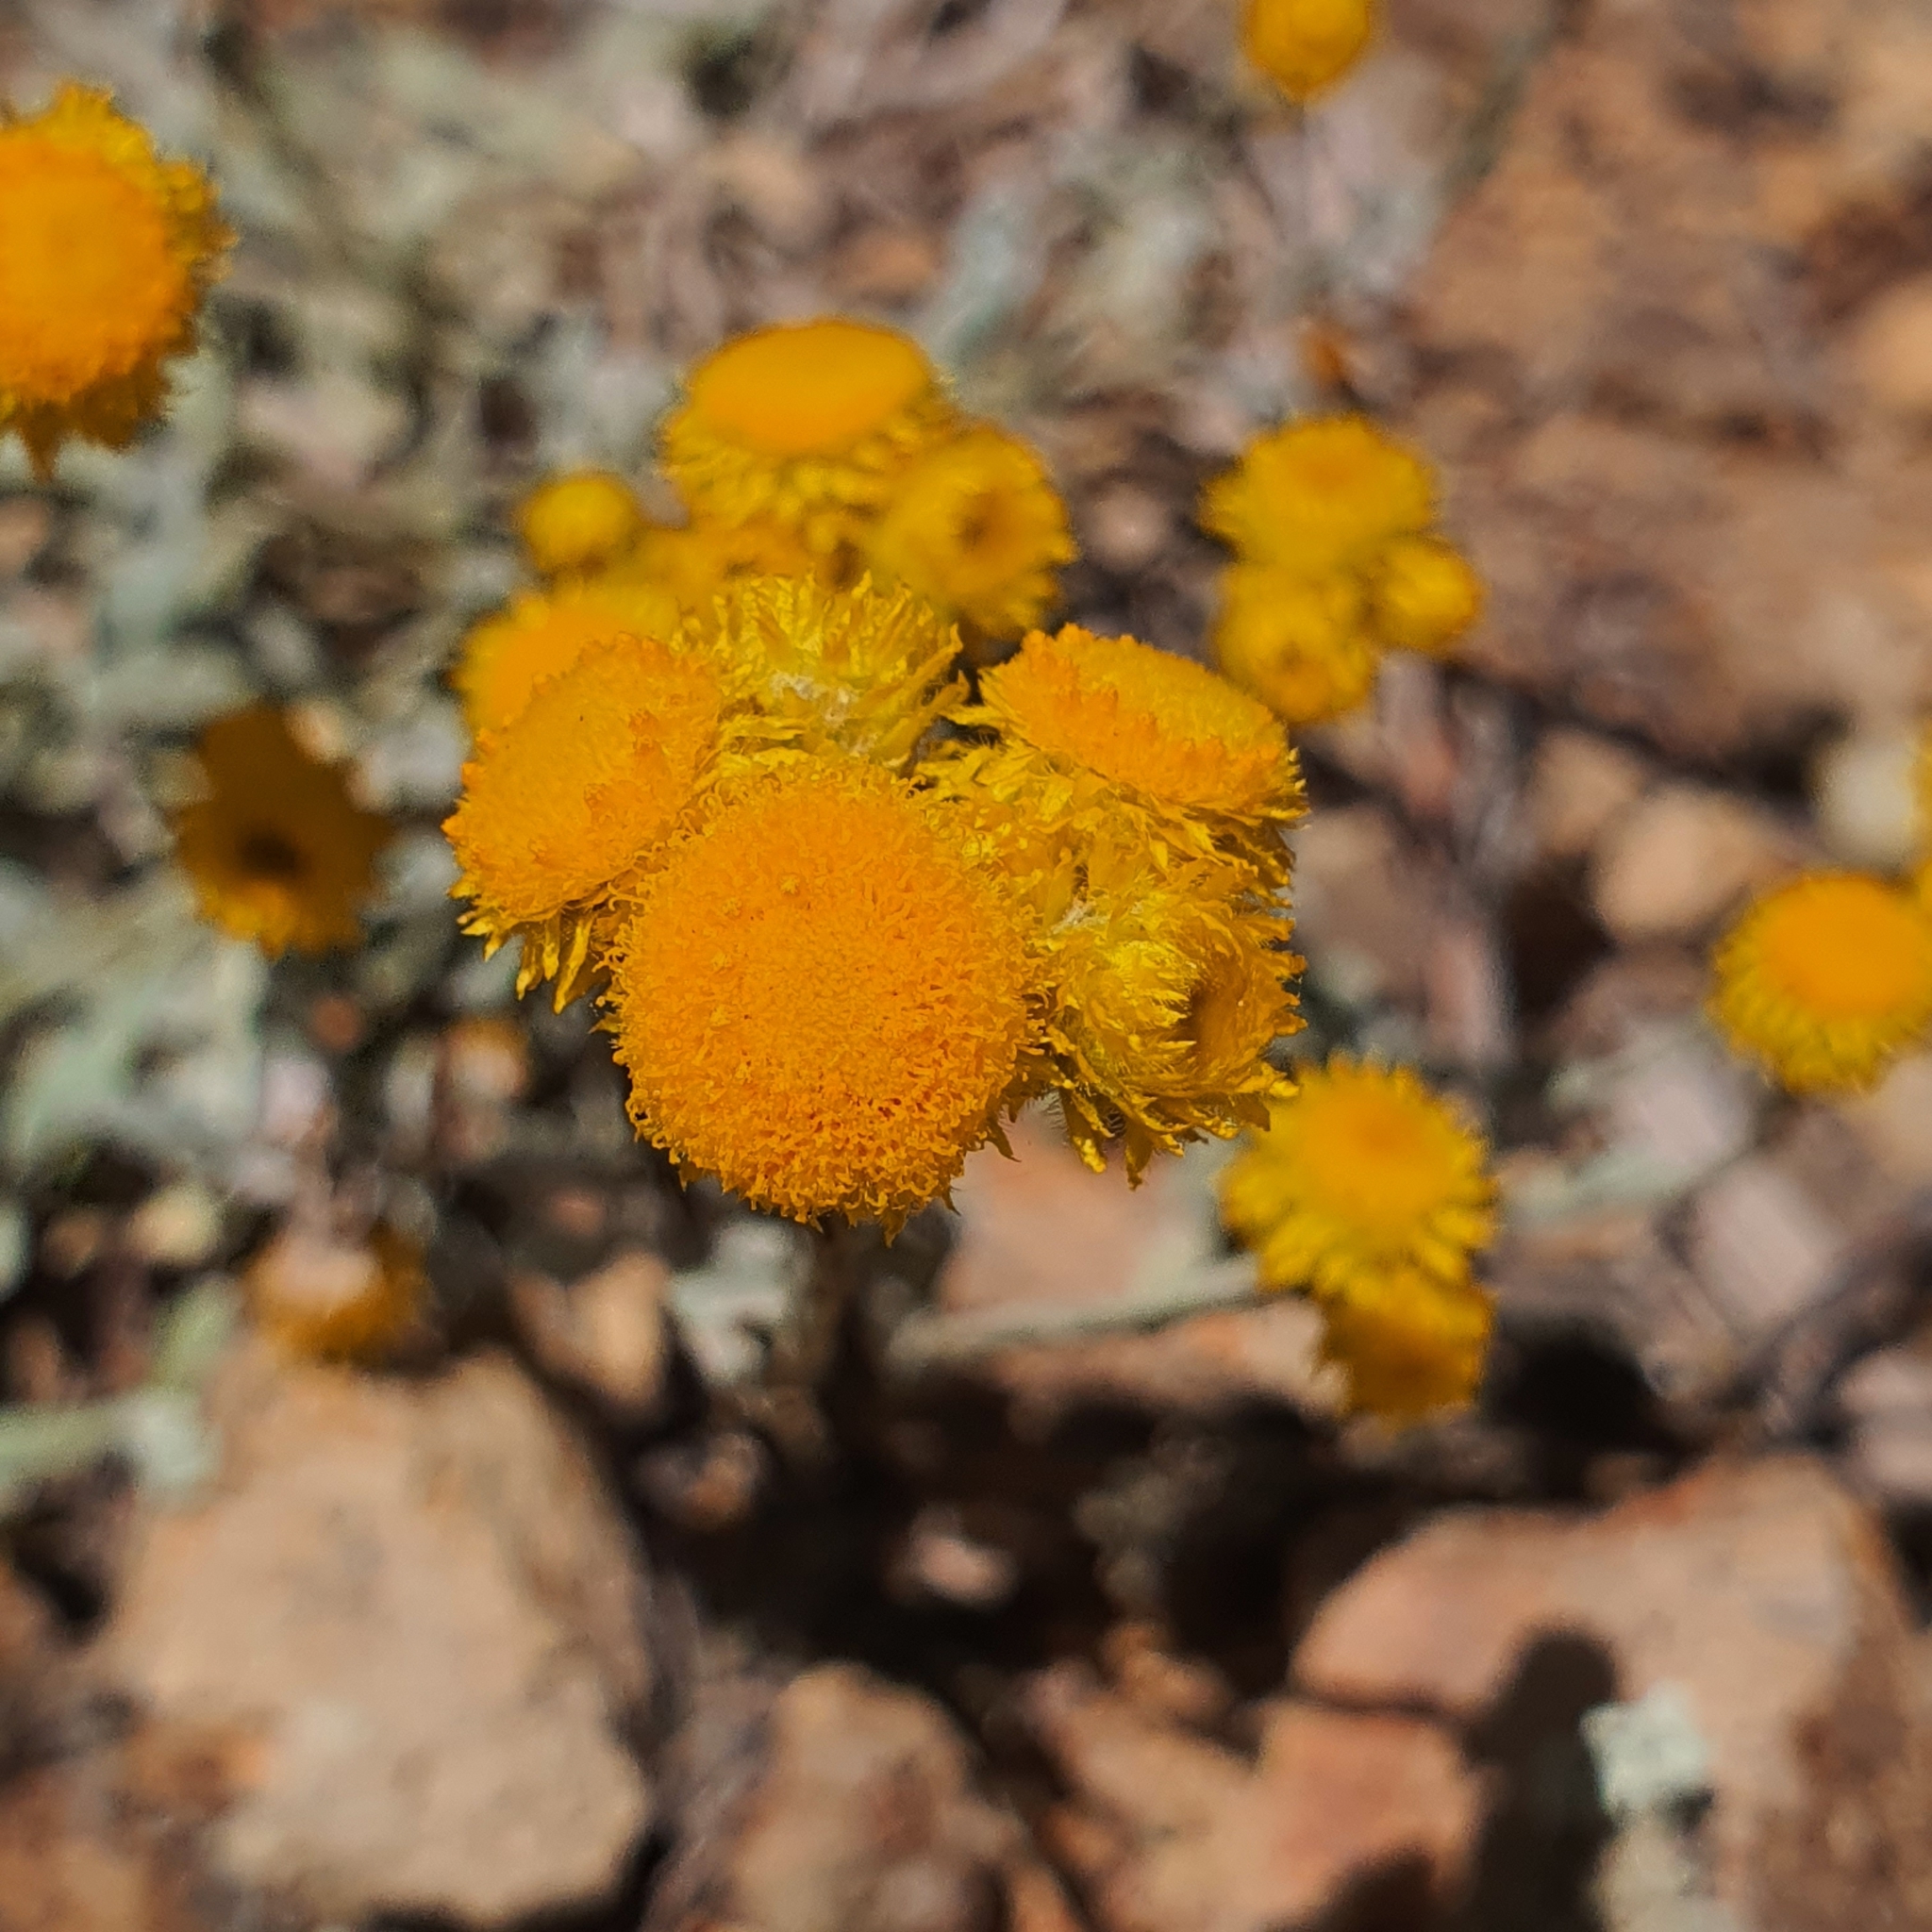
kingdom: Plantae
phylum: Tracheophyta
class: Magnoliopsida
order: Asterales
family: Asteraceae
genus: Chrysocephalum
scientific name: Chrysocephalum apiculatum
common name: Common everlasting
